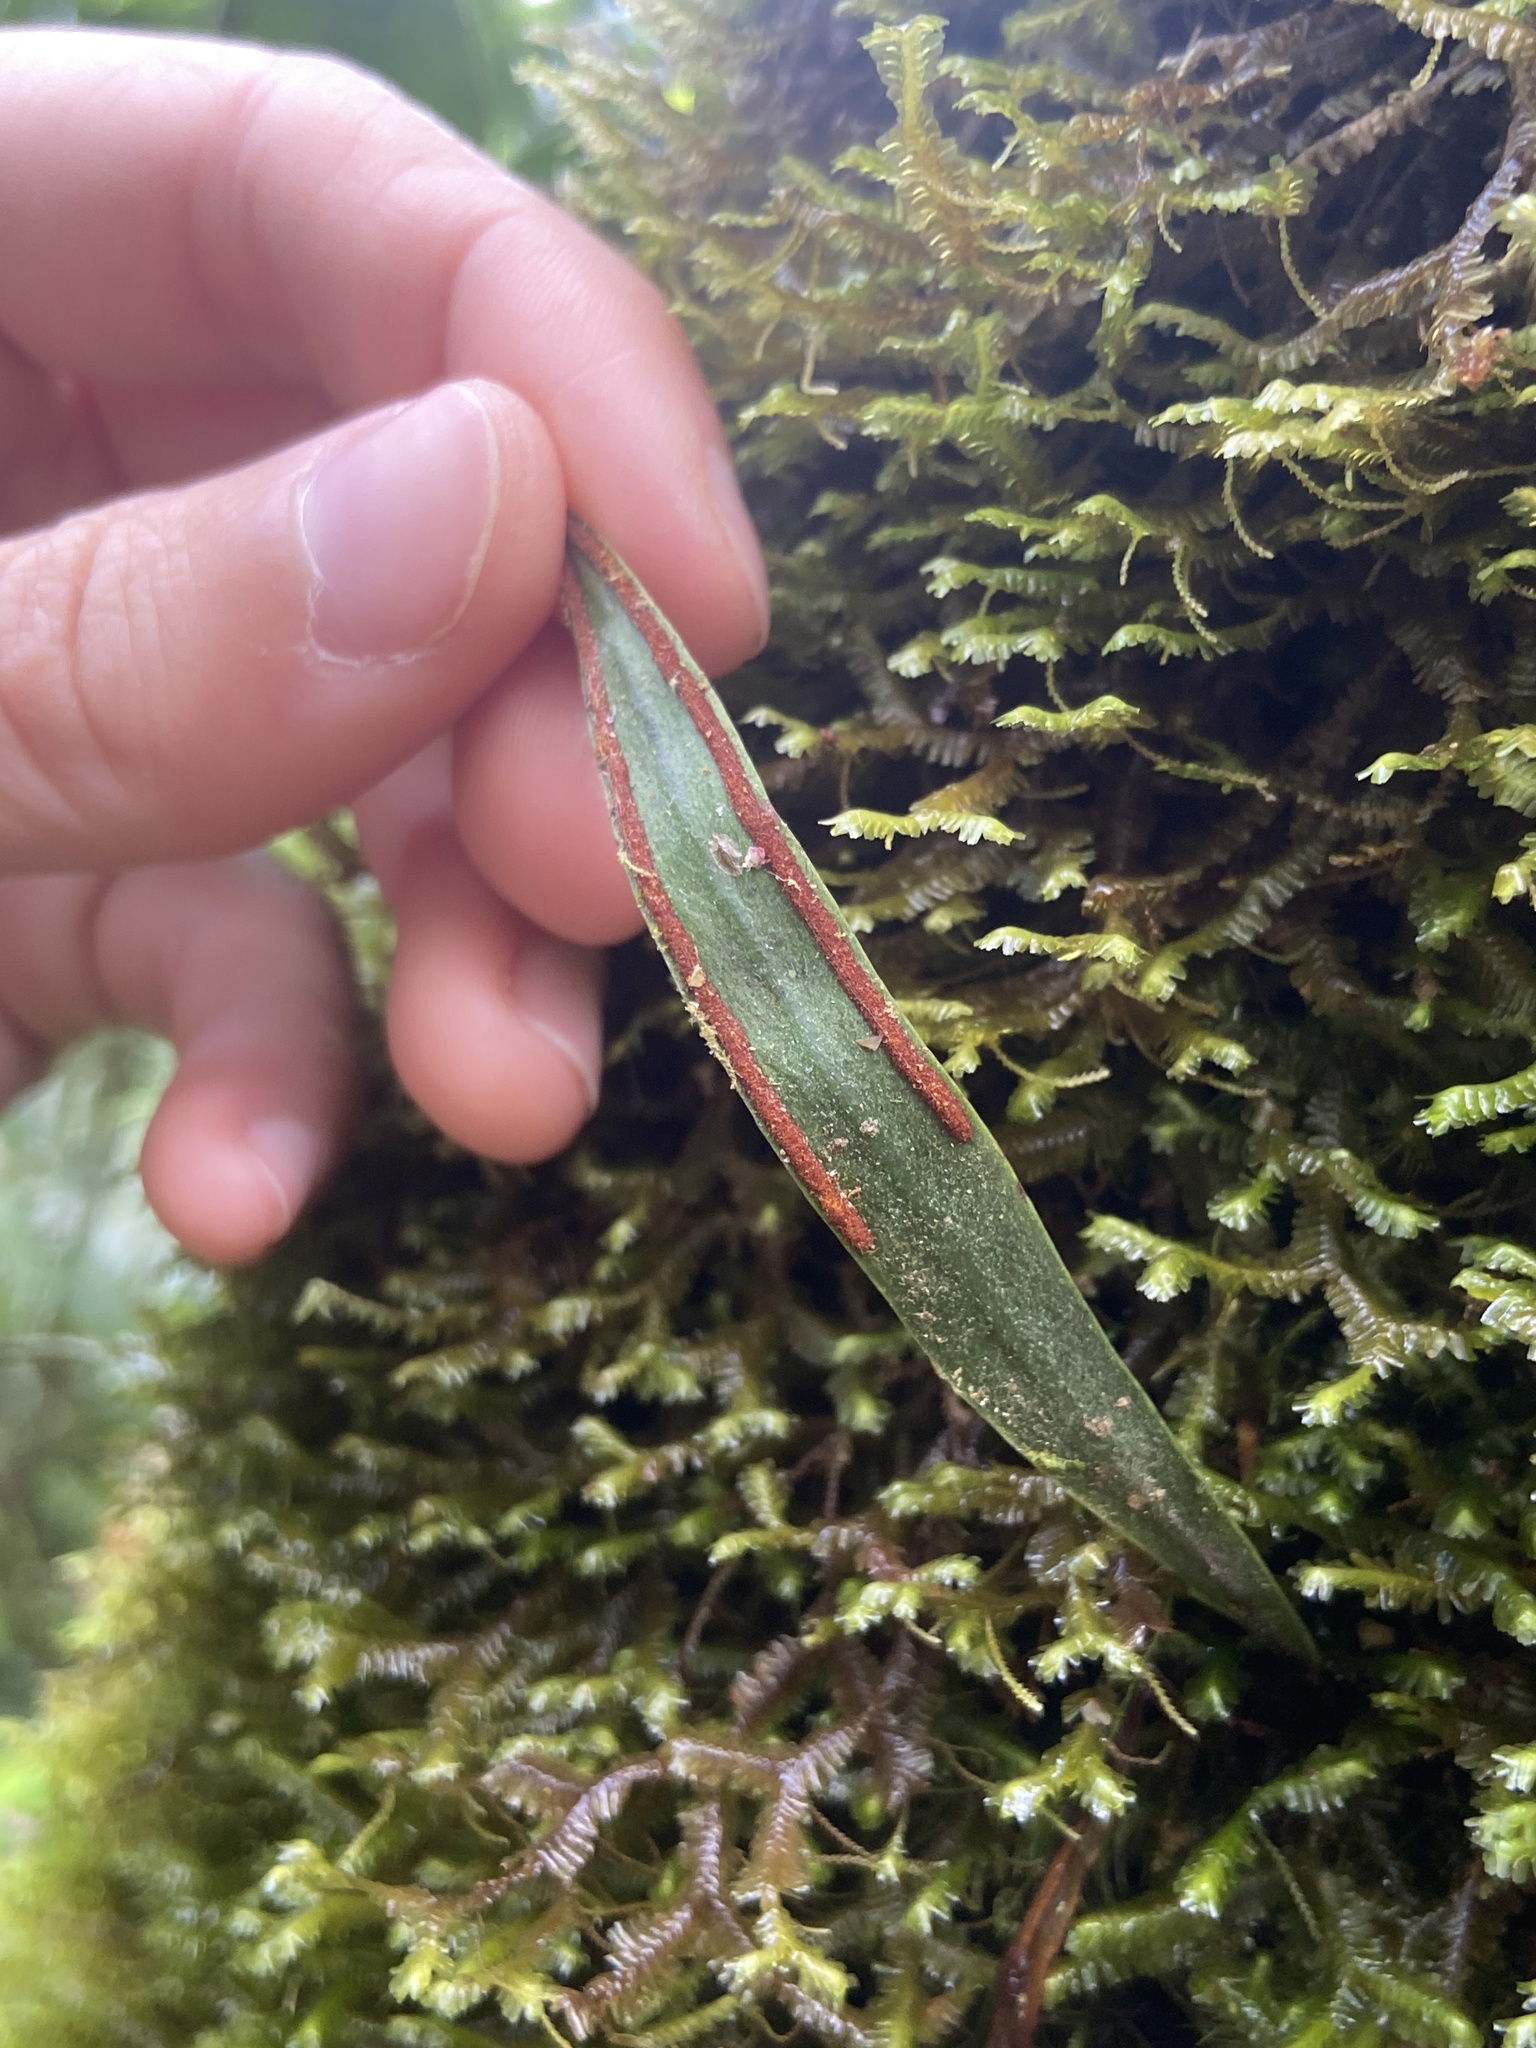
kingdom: Plantae
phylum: Tracheophyta
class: Polypodiopsida
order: Polypodiales
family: Polypodiaceae
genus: Pleopeltis
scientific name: Pleopeltis marginata
